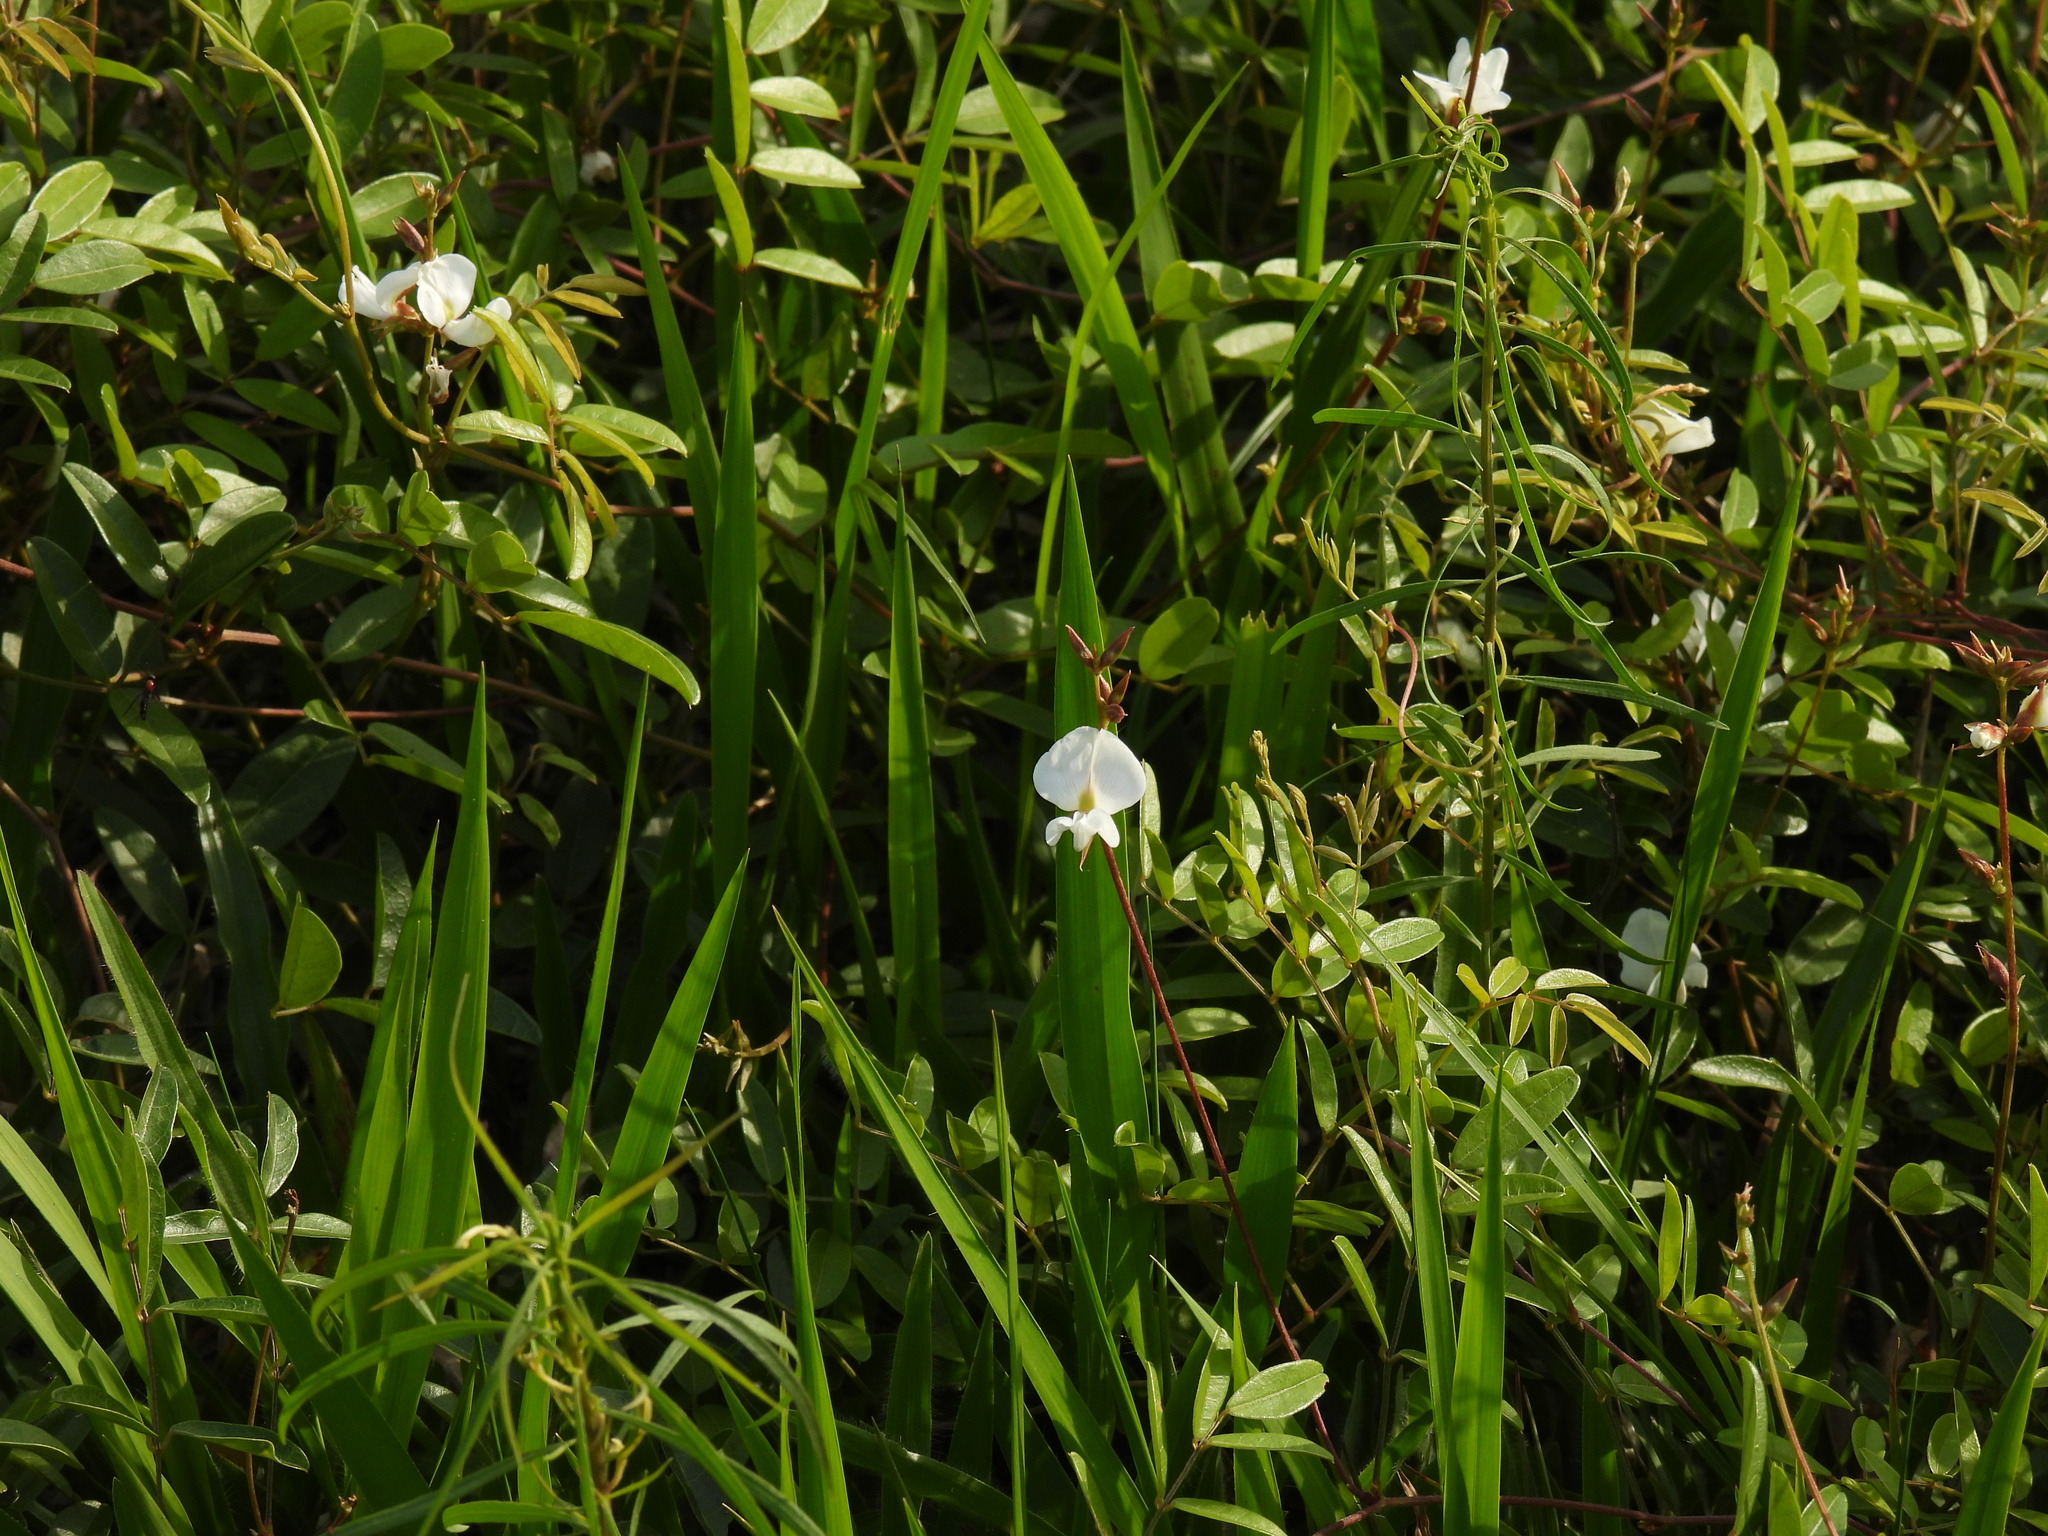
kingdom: Plantae
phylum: Tracheophyta
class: Magnoliopsida
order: Fabales
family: Fabaceae
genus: Galactia
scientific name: Galactia elliottii
